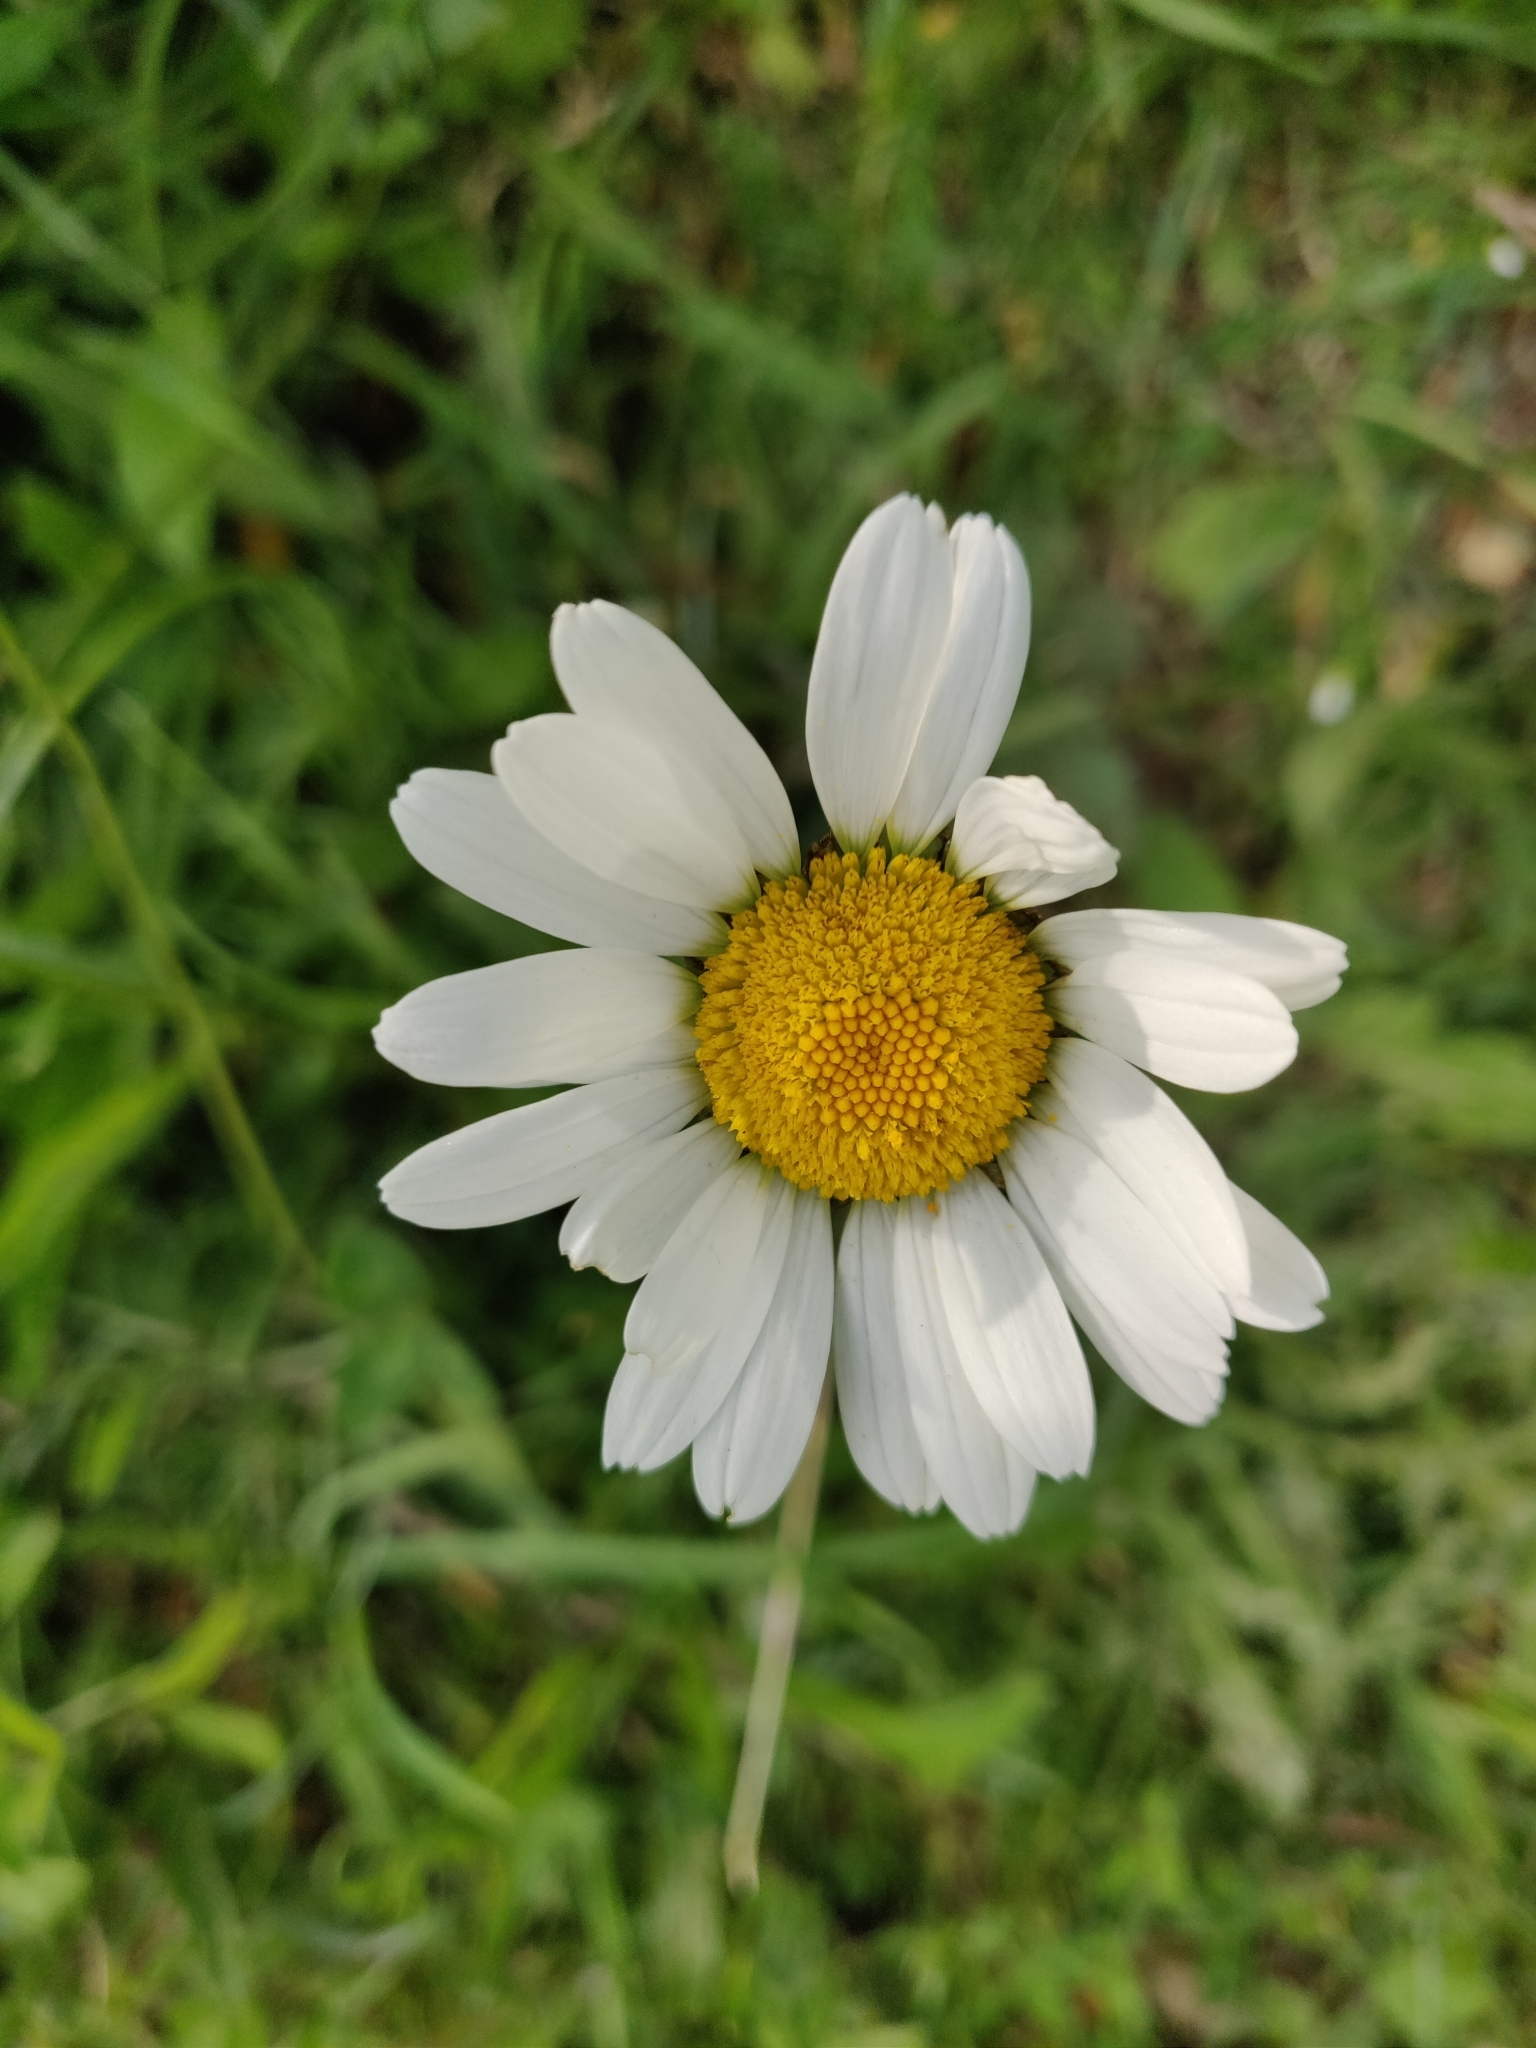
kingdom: Plantae
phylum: Tracheophyta
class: Magnoliopsida
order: Asterales
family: Asteraceae
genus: Leucanthemum
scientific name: Leucanthemum vulgare
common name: Oxeye daisy
